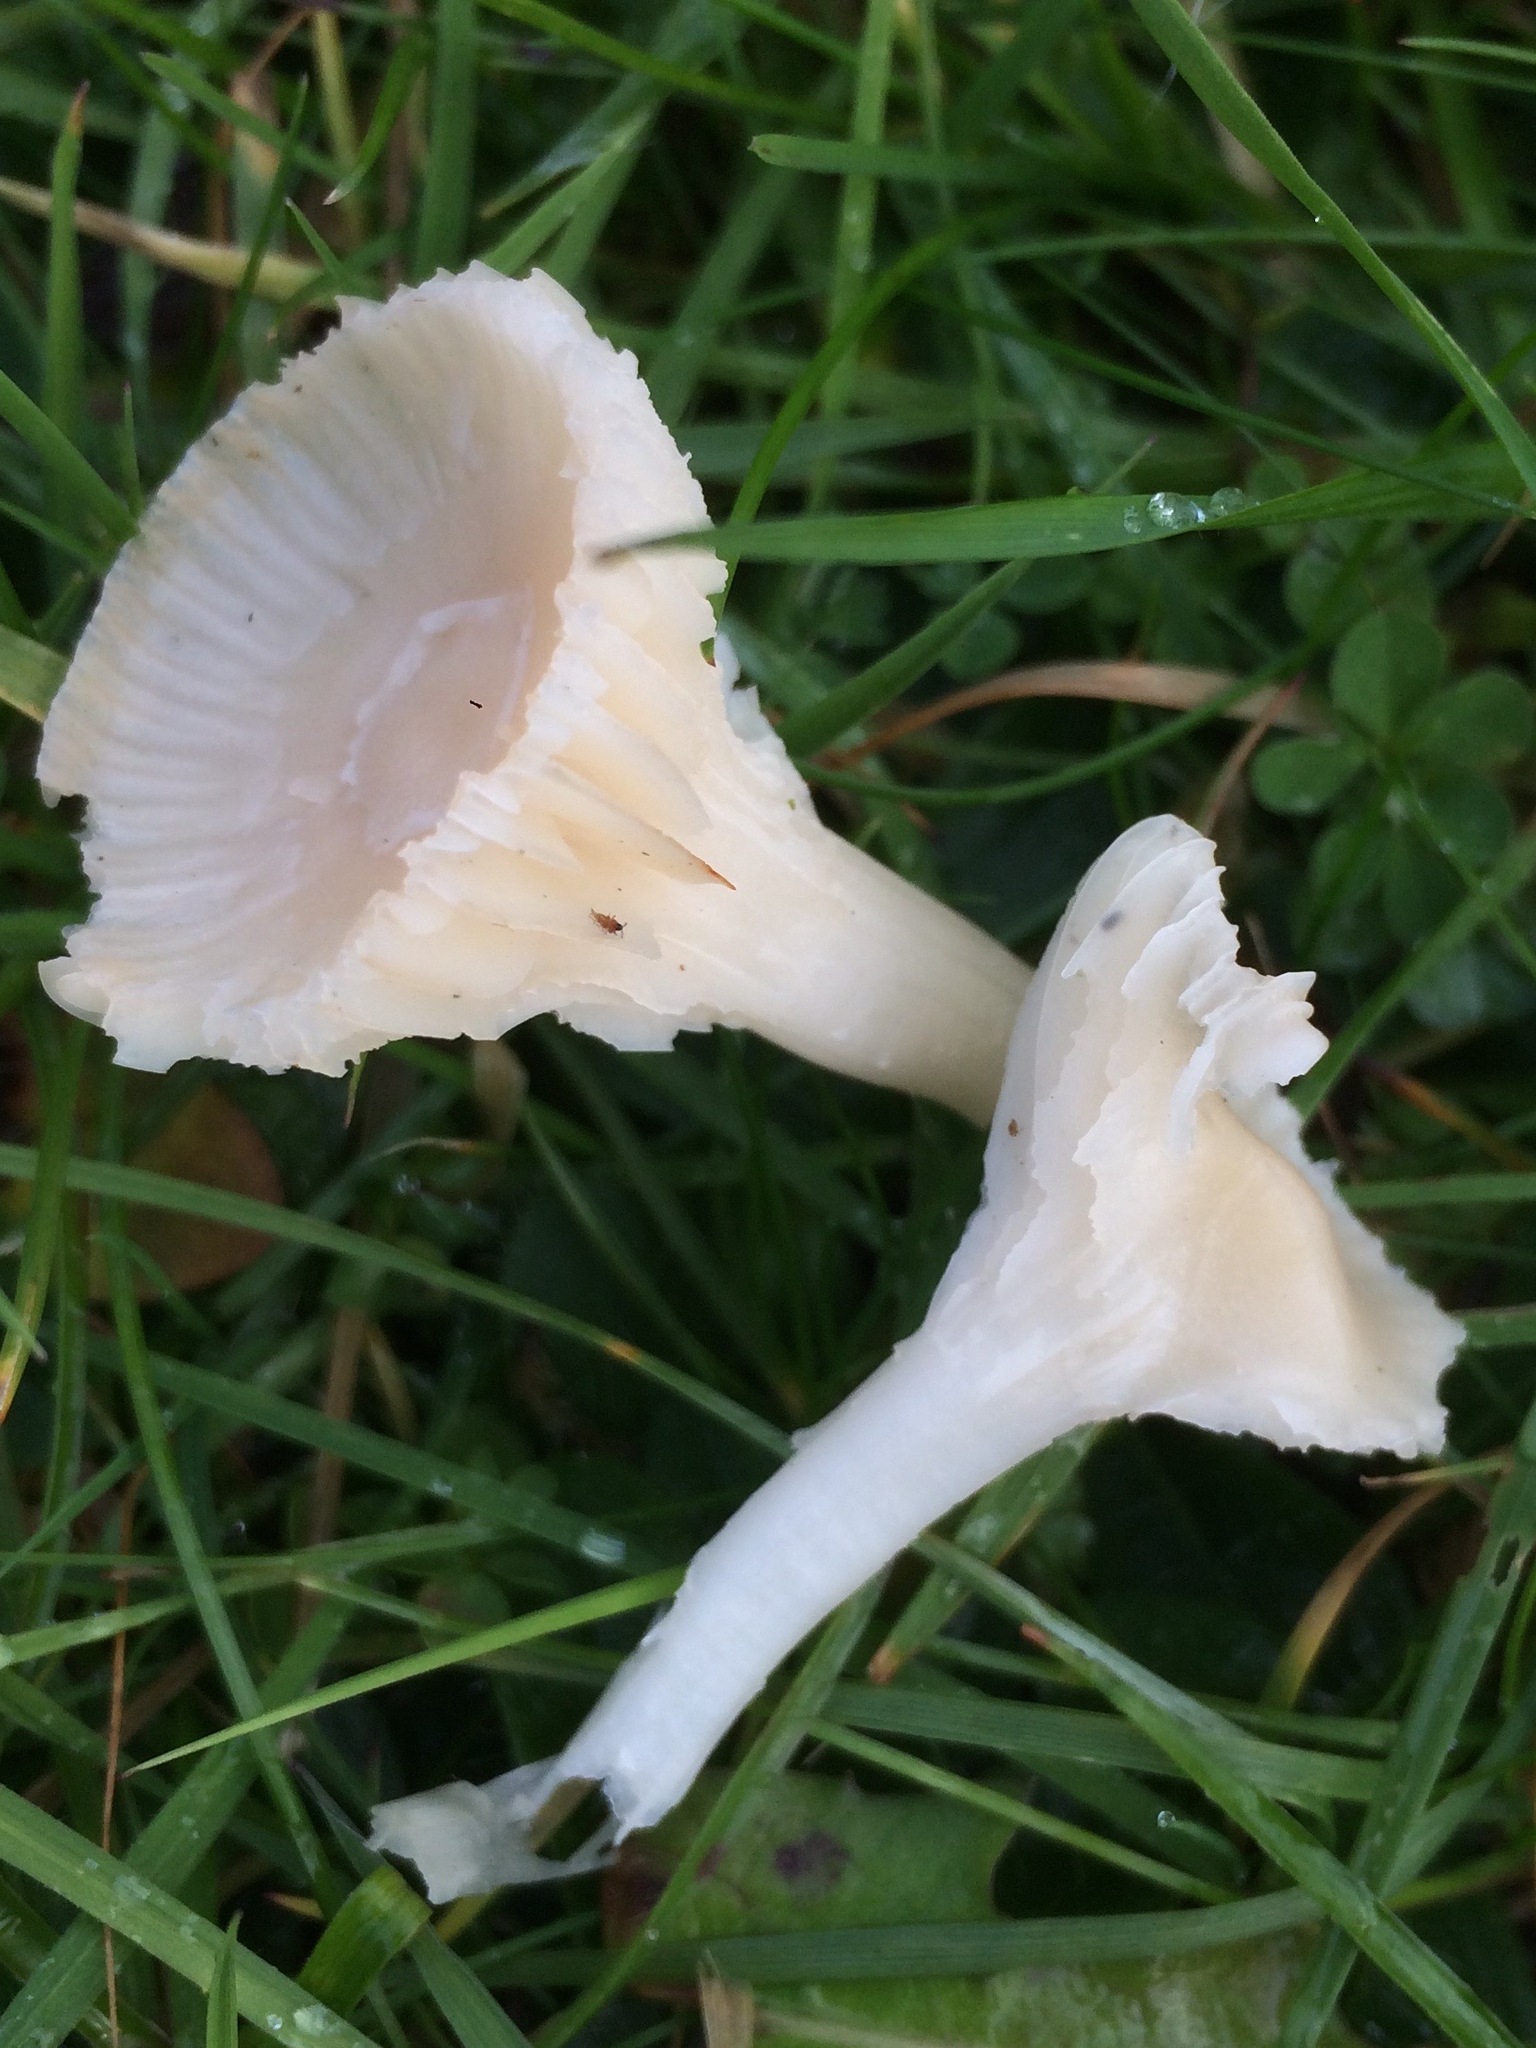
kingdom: Fungi
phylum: Basidiomycota
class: Agaricomycetes
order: Agaricales
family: Hygrophoraceae
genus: Cuphophyllus
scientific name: Cuphophyllus virgineus
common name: Snowy waxcap
